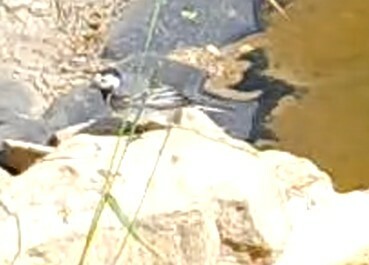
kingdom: Animalia
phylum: Chordata
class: Aves
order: Passeriformes
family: Motacillidae
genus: Motacilla
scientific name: Motacilla alba
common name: White wagtail
